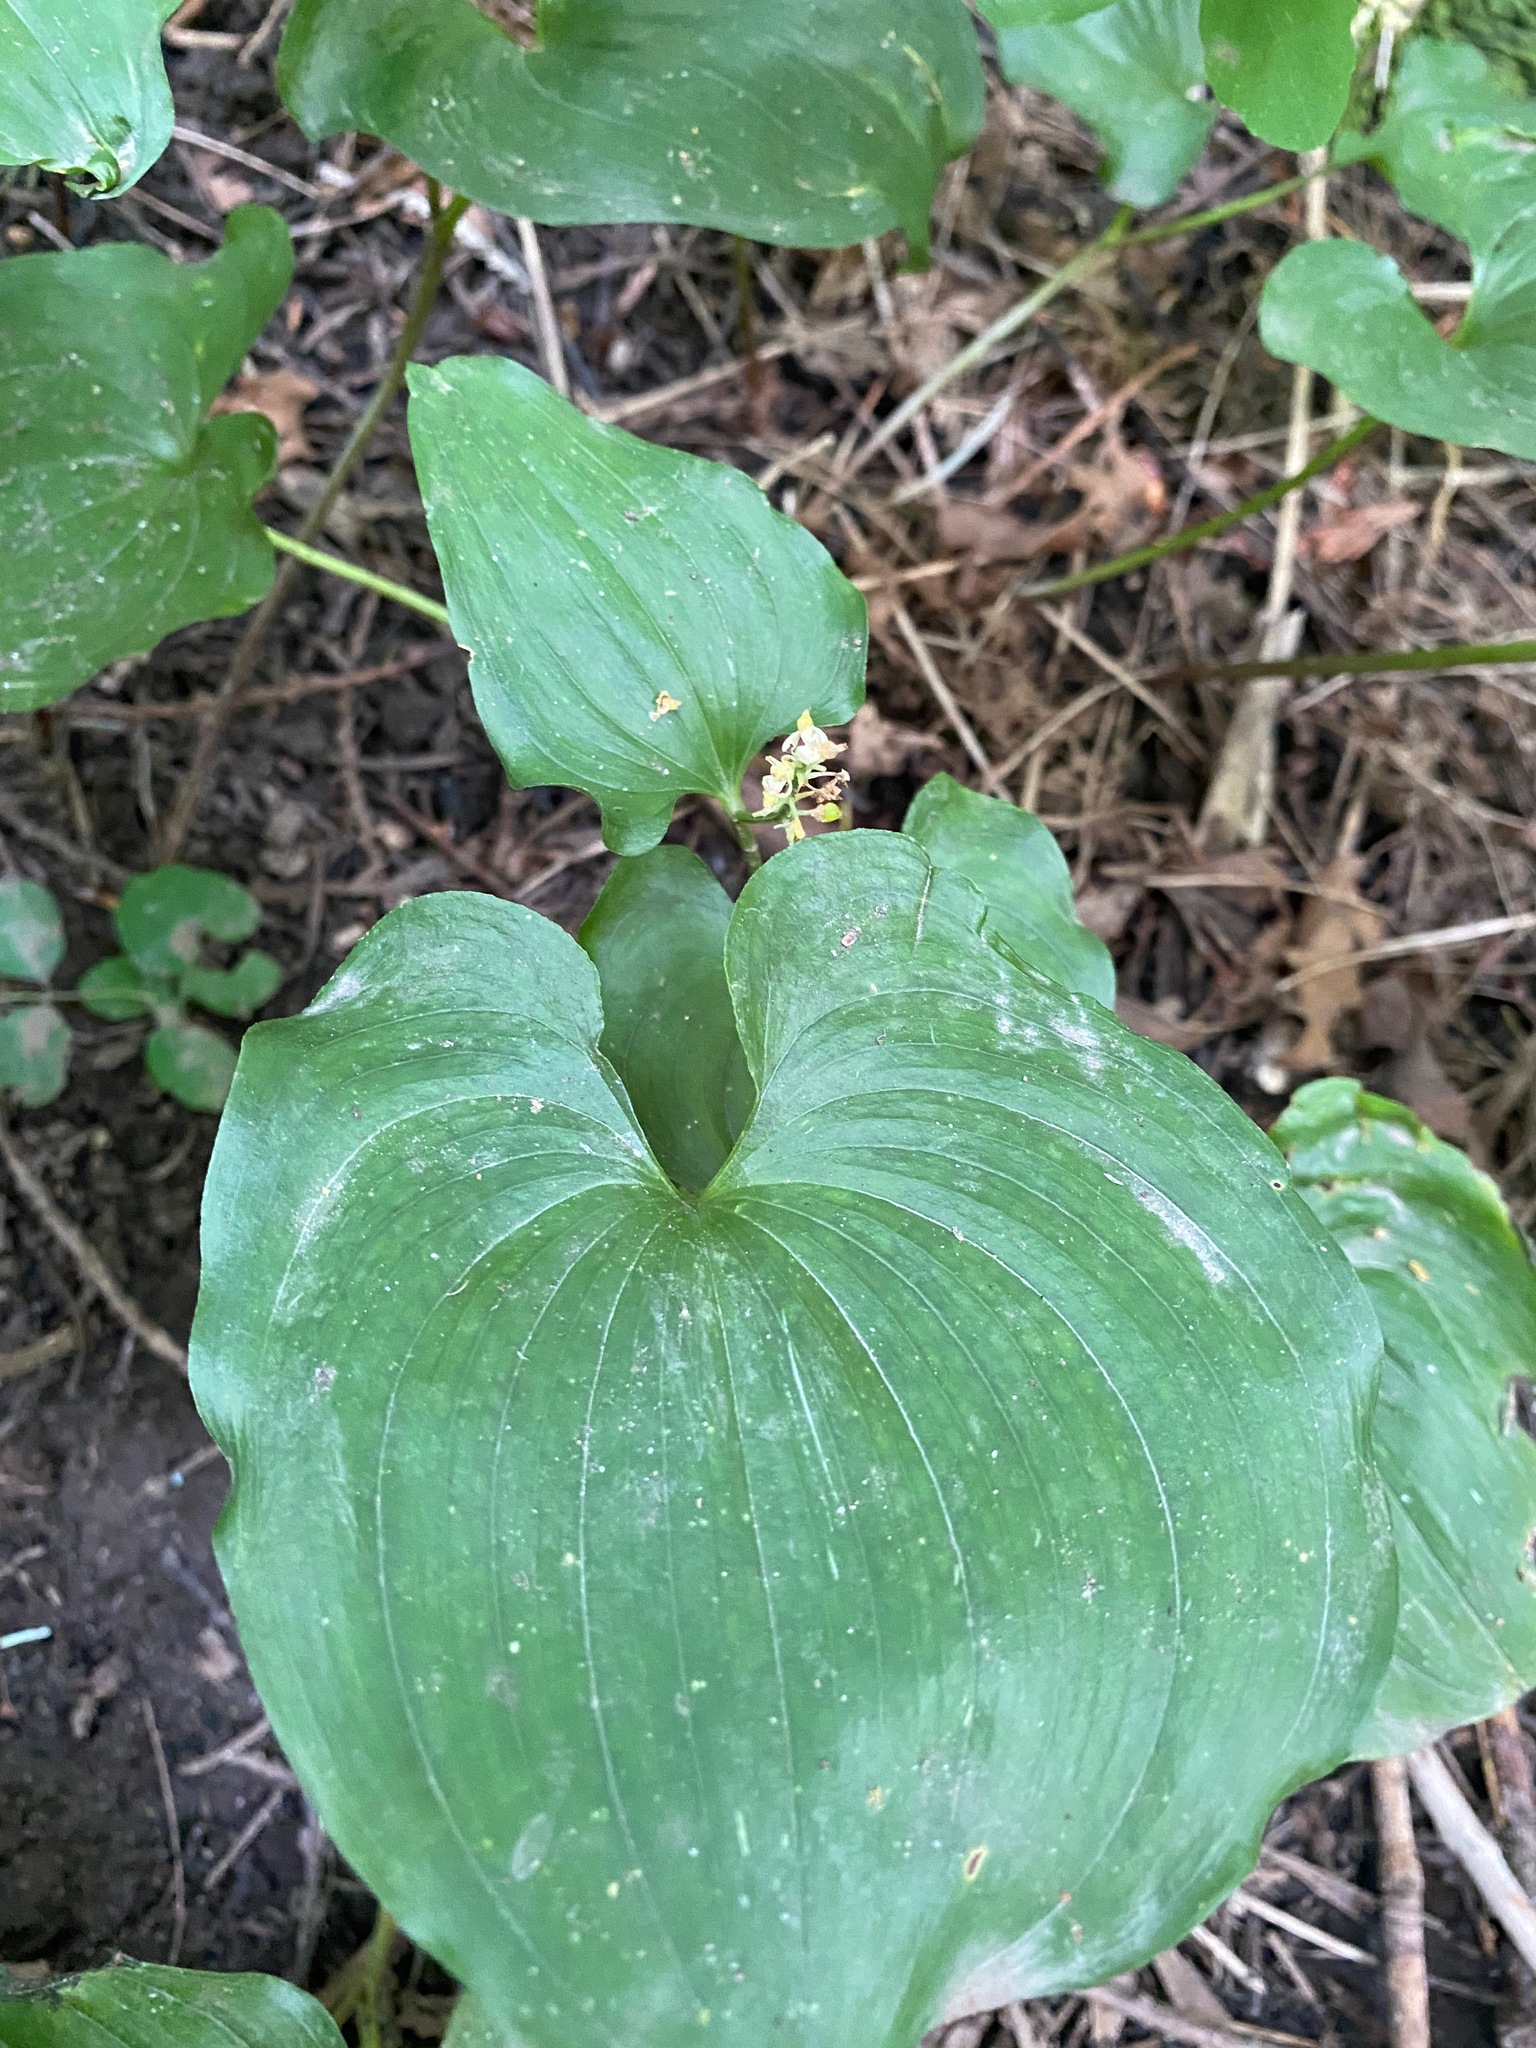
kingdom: Plantae
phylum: Tracheophyta
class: Liliopsida
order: Asparagales
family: Asparagaceae
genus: Maianthemum
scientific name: Maianthemum dilatatum
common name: False lily-of-the-valley
